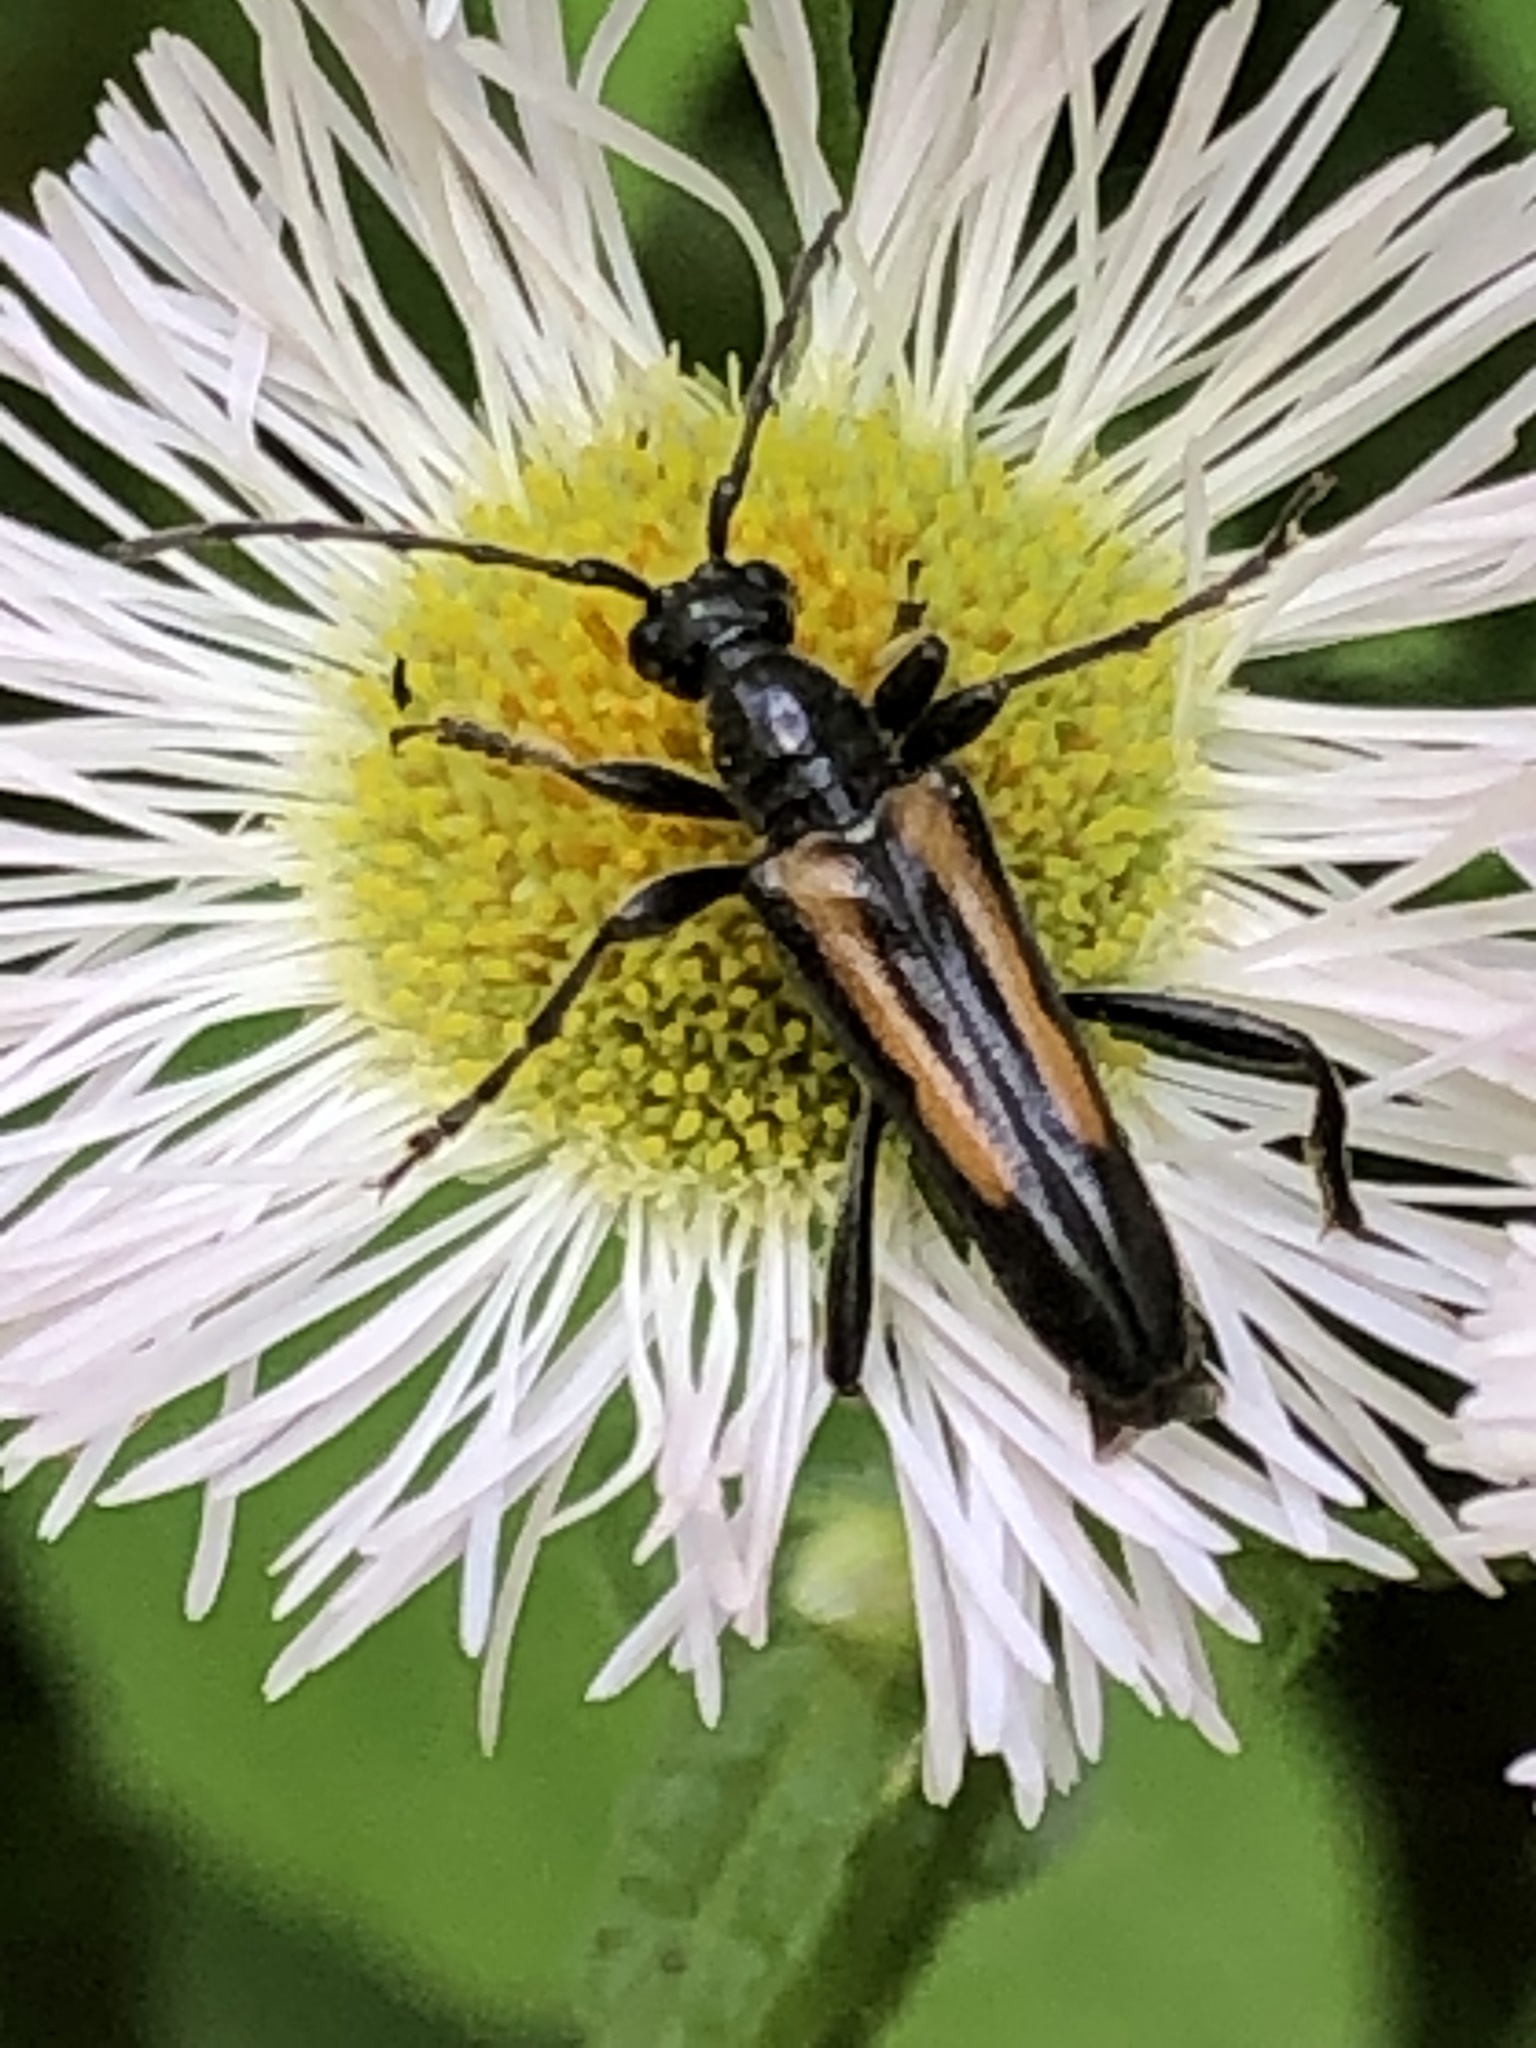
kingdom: Animalia
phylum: Arthropoda
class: Insecta
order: Coleoptera
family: Cerambycidae
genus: Strangalepta
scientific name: Strangalepta abbreviata
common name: Strangalepta flower longhorn beetle
